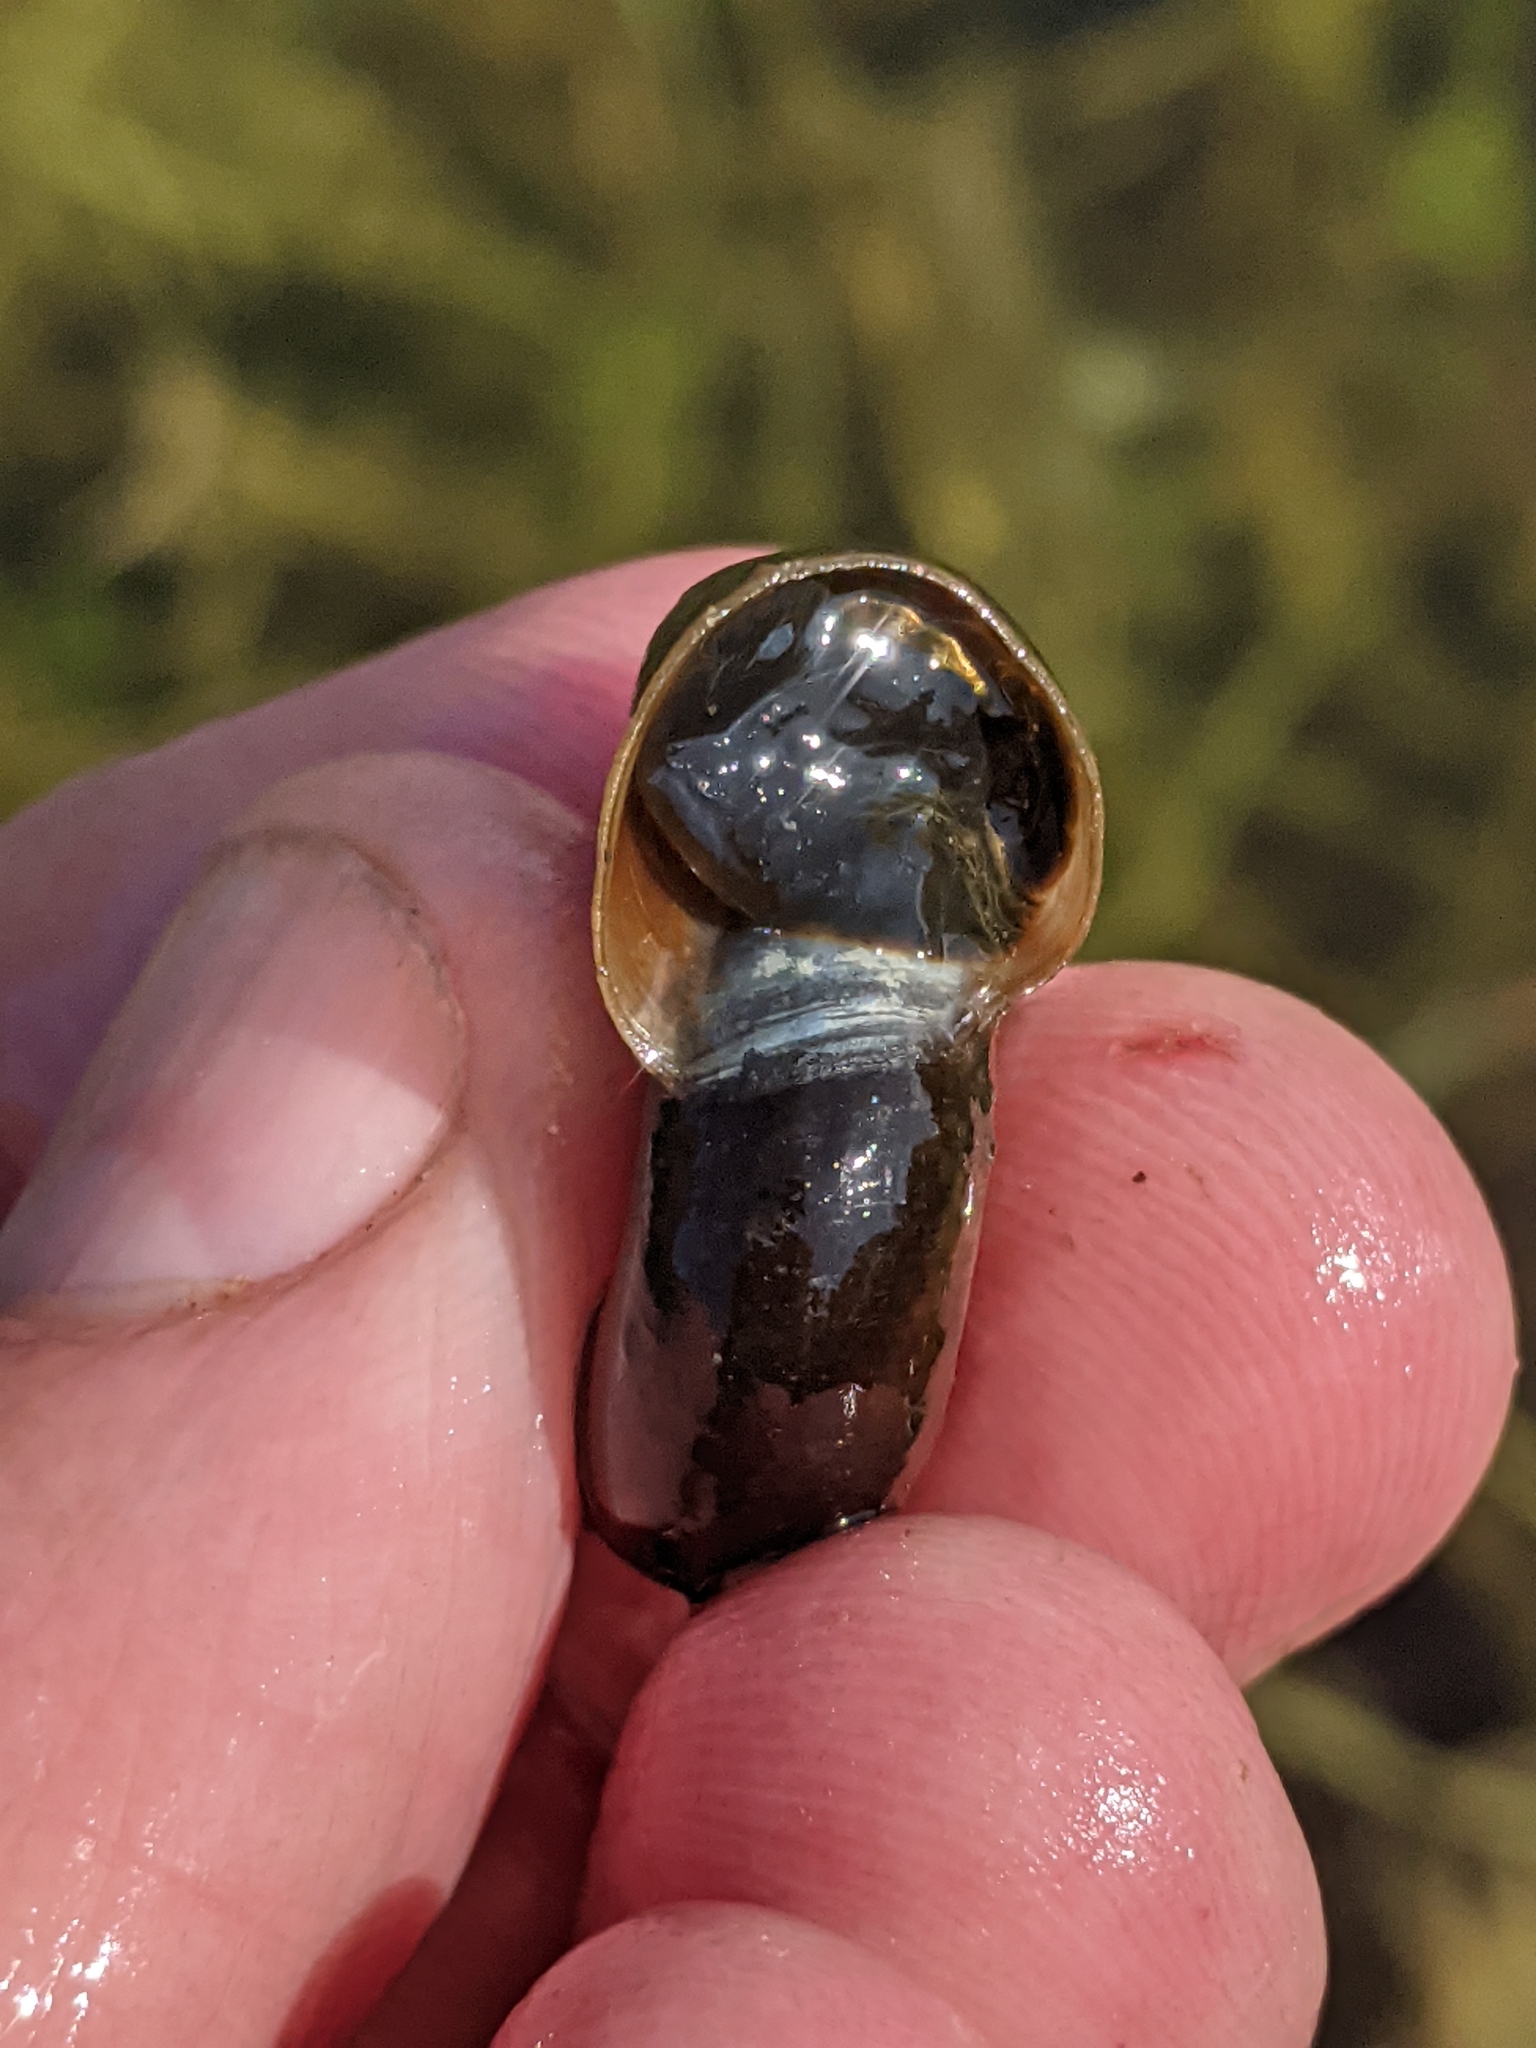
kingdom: Animalia
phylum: Mollusca
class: Gastropoda
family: Planorbidae
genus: Planorbarius
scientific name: Planorbarius corneus
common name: Great ramshorn
